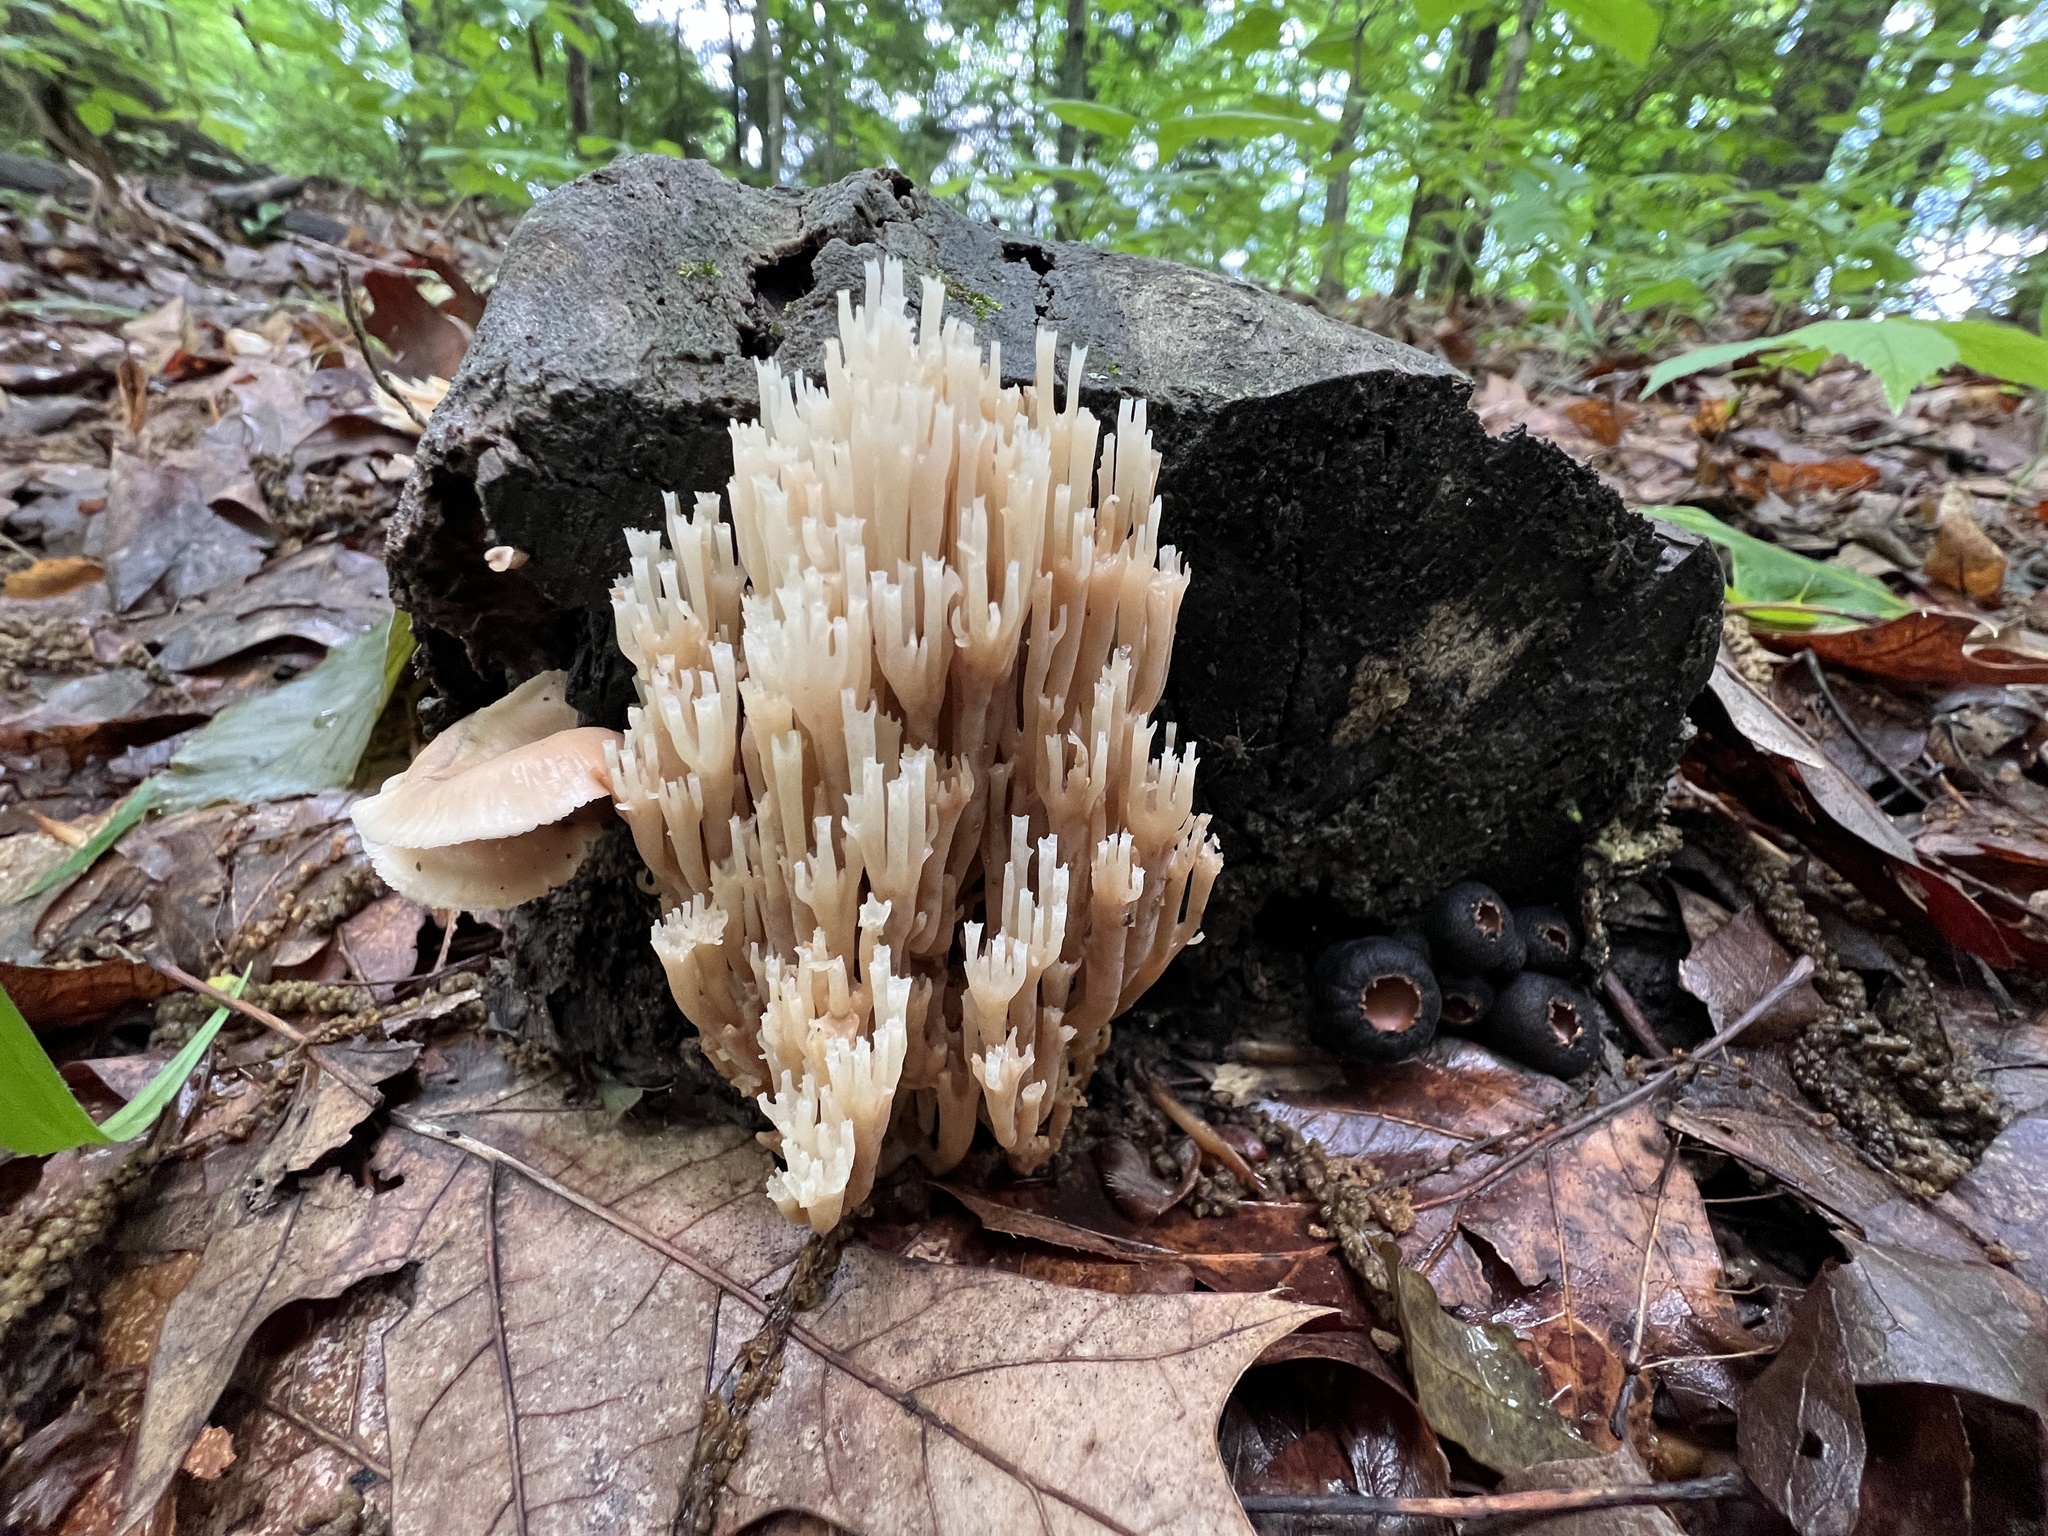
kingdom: Fungi
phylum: Basidiomycota
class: Agaricomycetes
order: Russulales
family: Auriscalpiaceae
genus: Artomyces
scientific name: Artomyces pyxidatus
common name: Crown-tipped coral fungus
